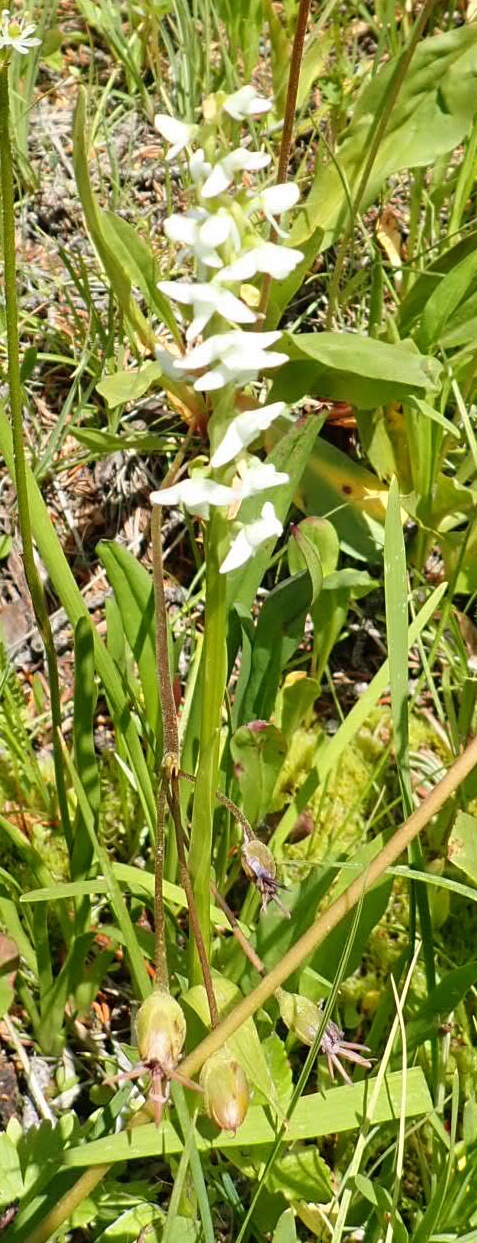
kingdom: Plantae
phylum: Tracheophyta
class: Liliopsida
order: Asparagales
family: Orchidaceae
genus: Platanthera
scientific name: Platanthera dilatata
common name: Bog candles
